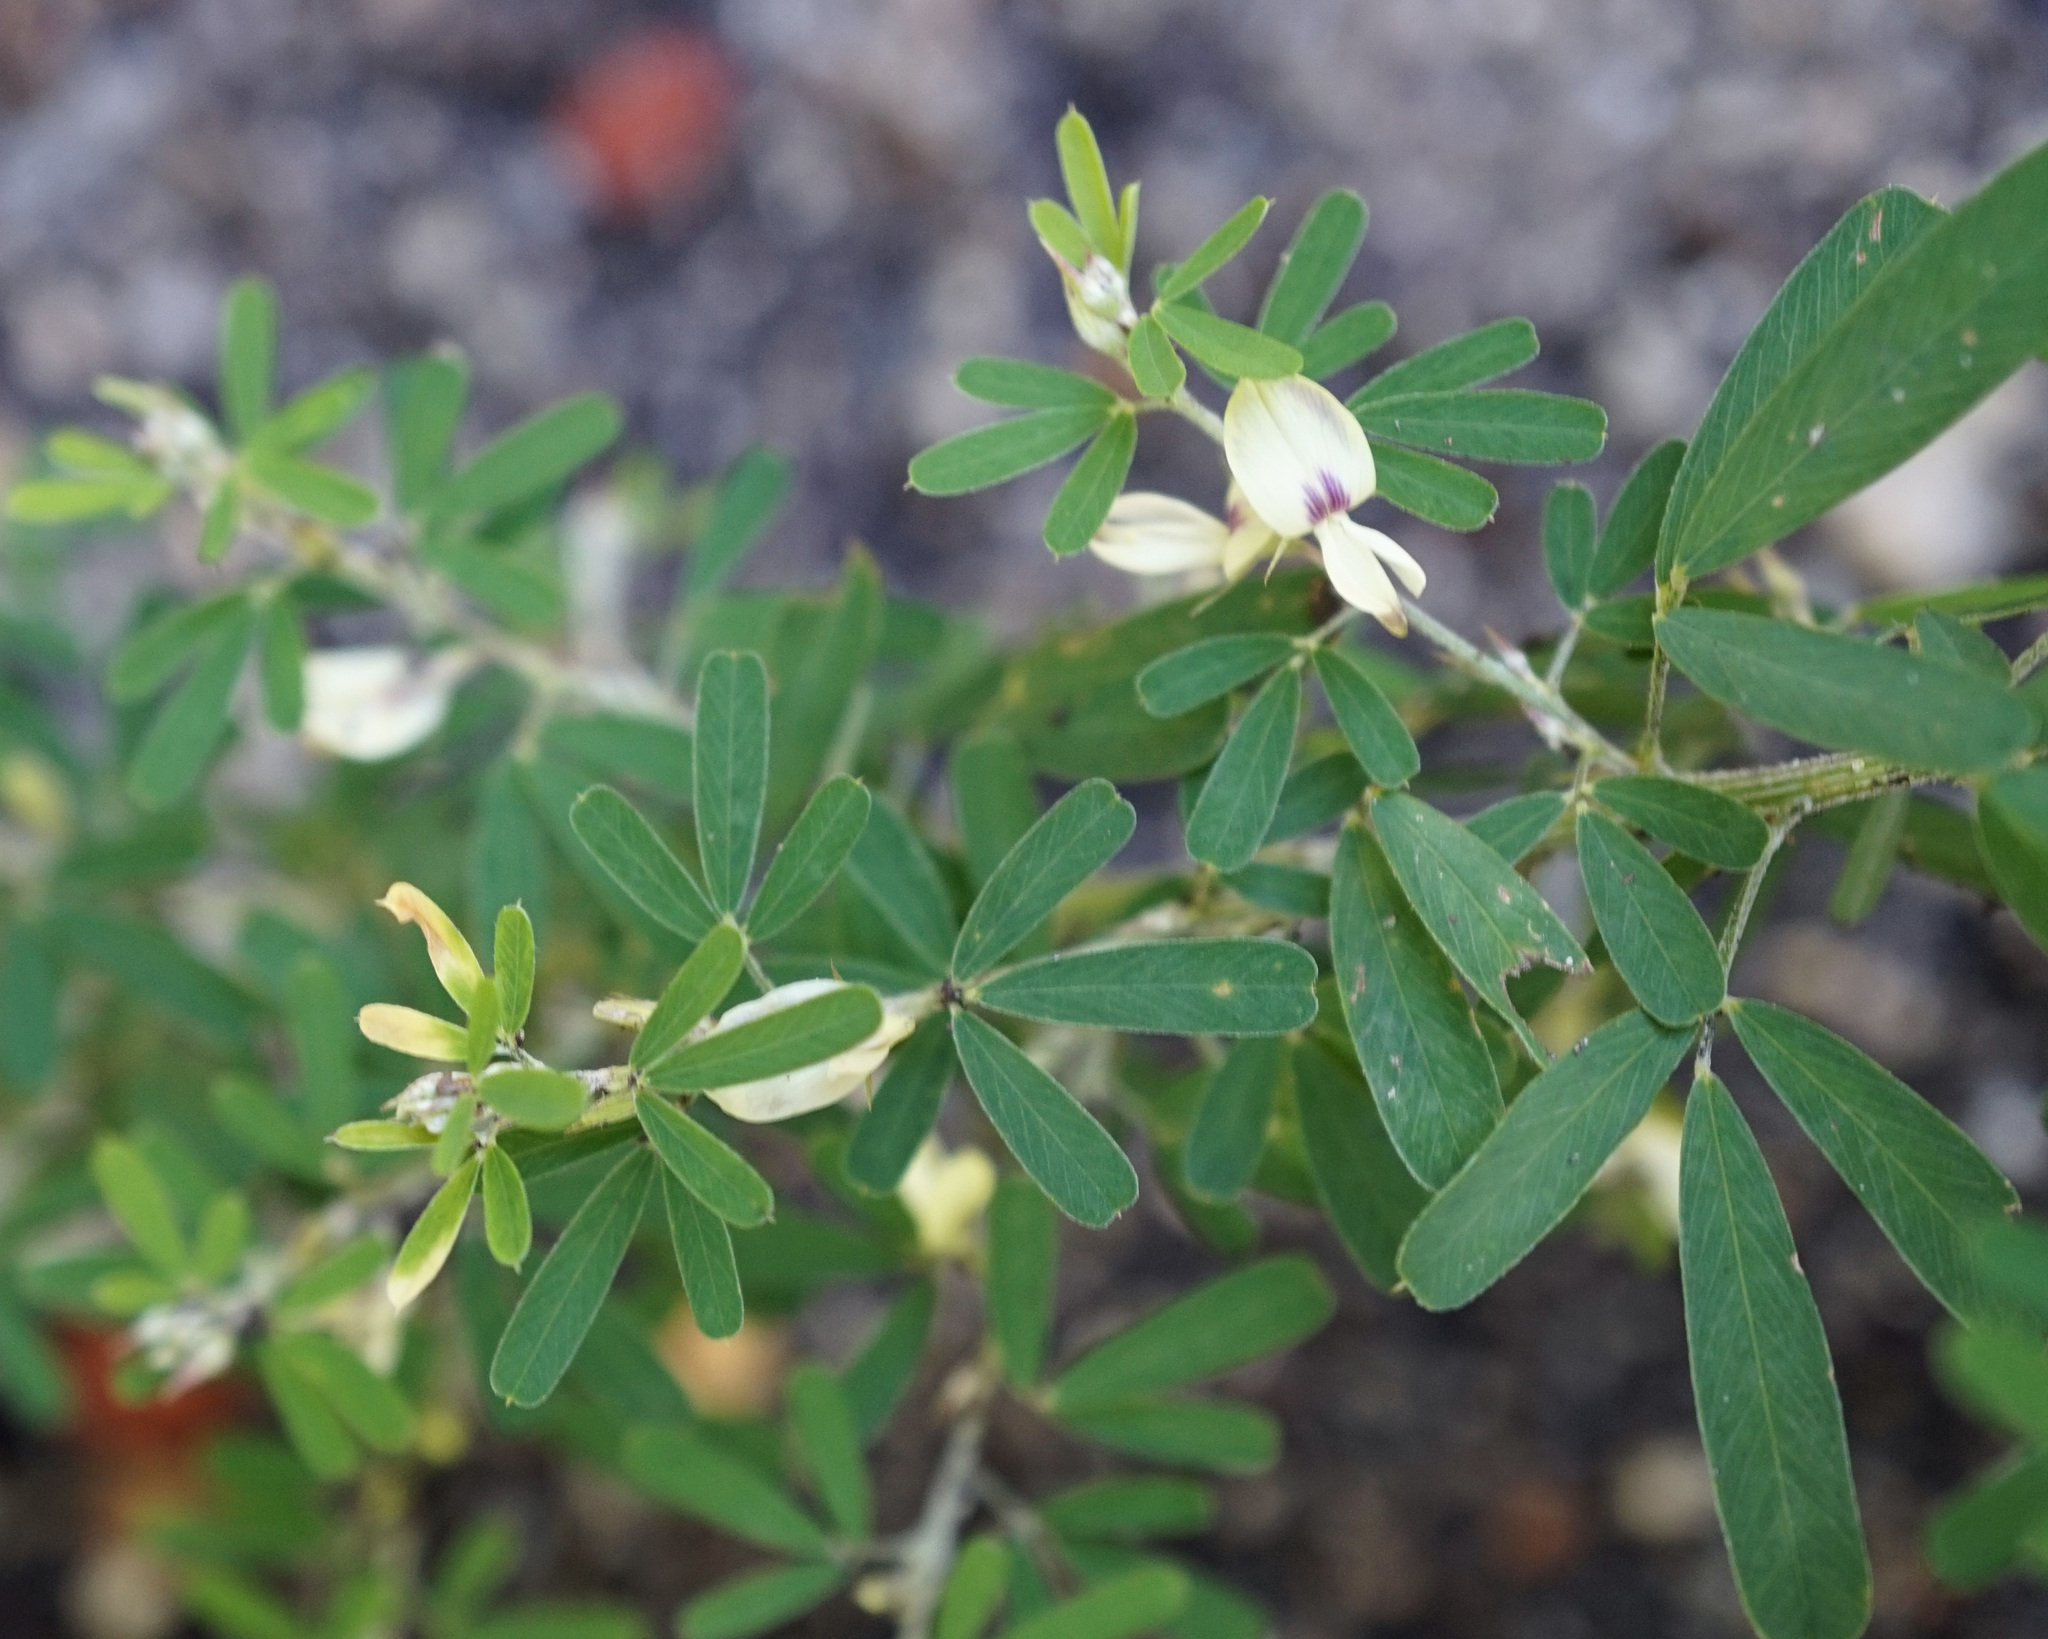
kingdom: Plantae
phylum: Tracheophyta
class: Magnoliopsida
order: Fabales
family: Fabaceae
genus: Lespedeza
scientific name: Lespedeza cuneata
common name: Chinese bush-clover
